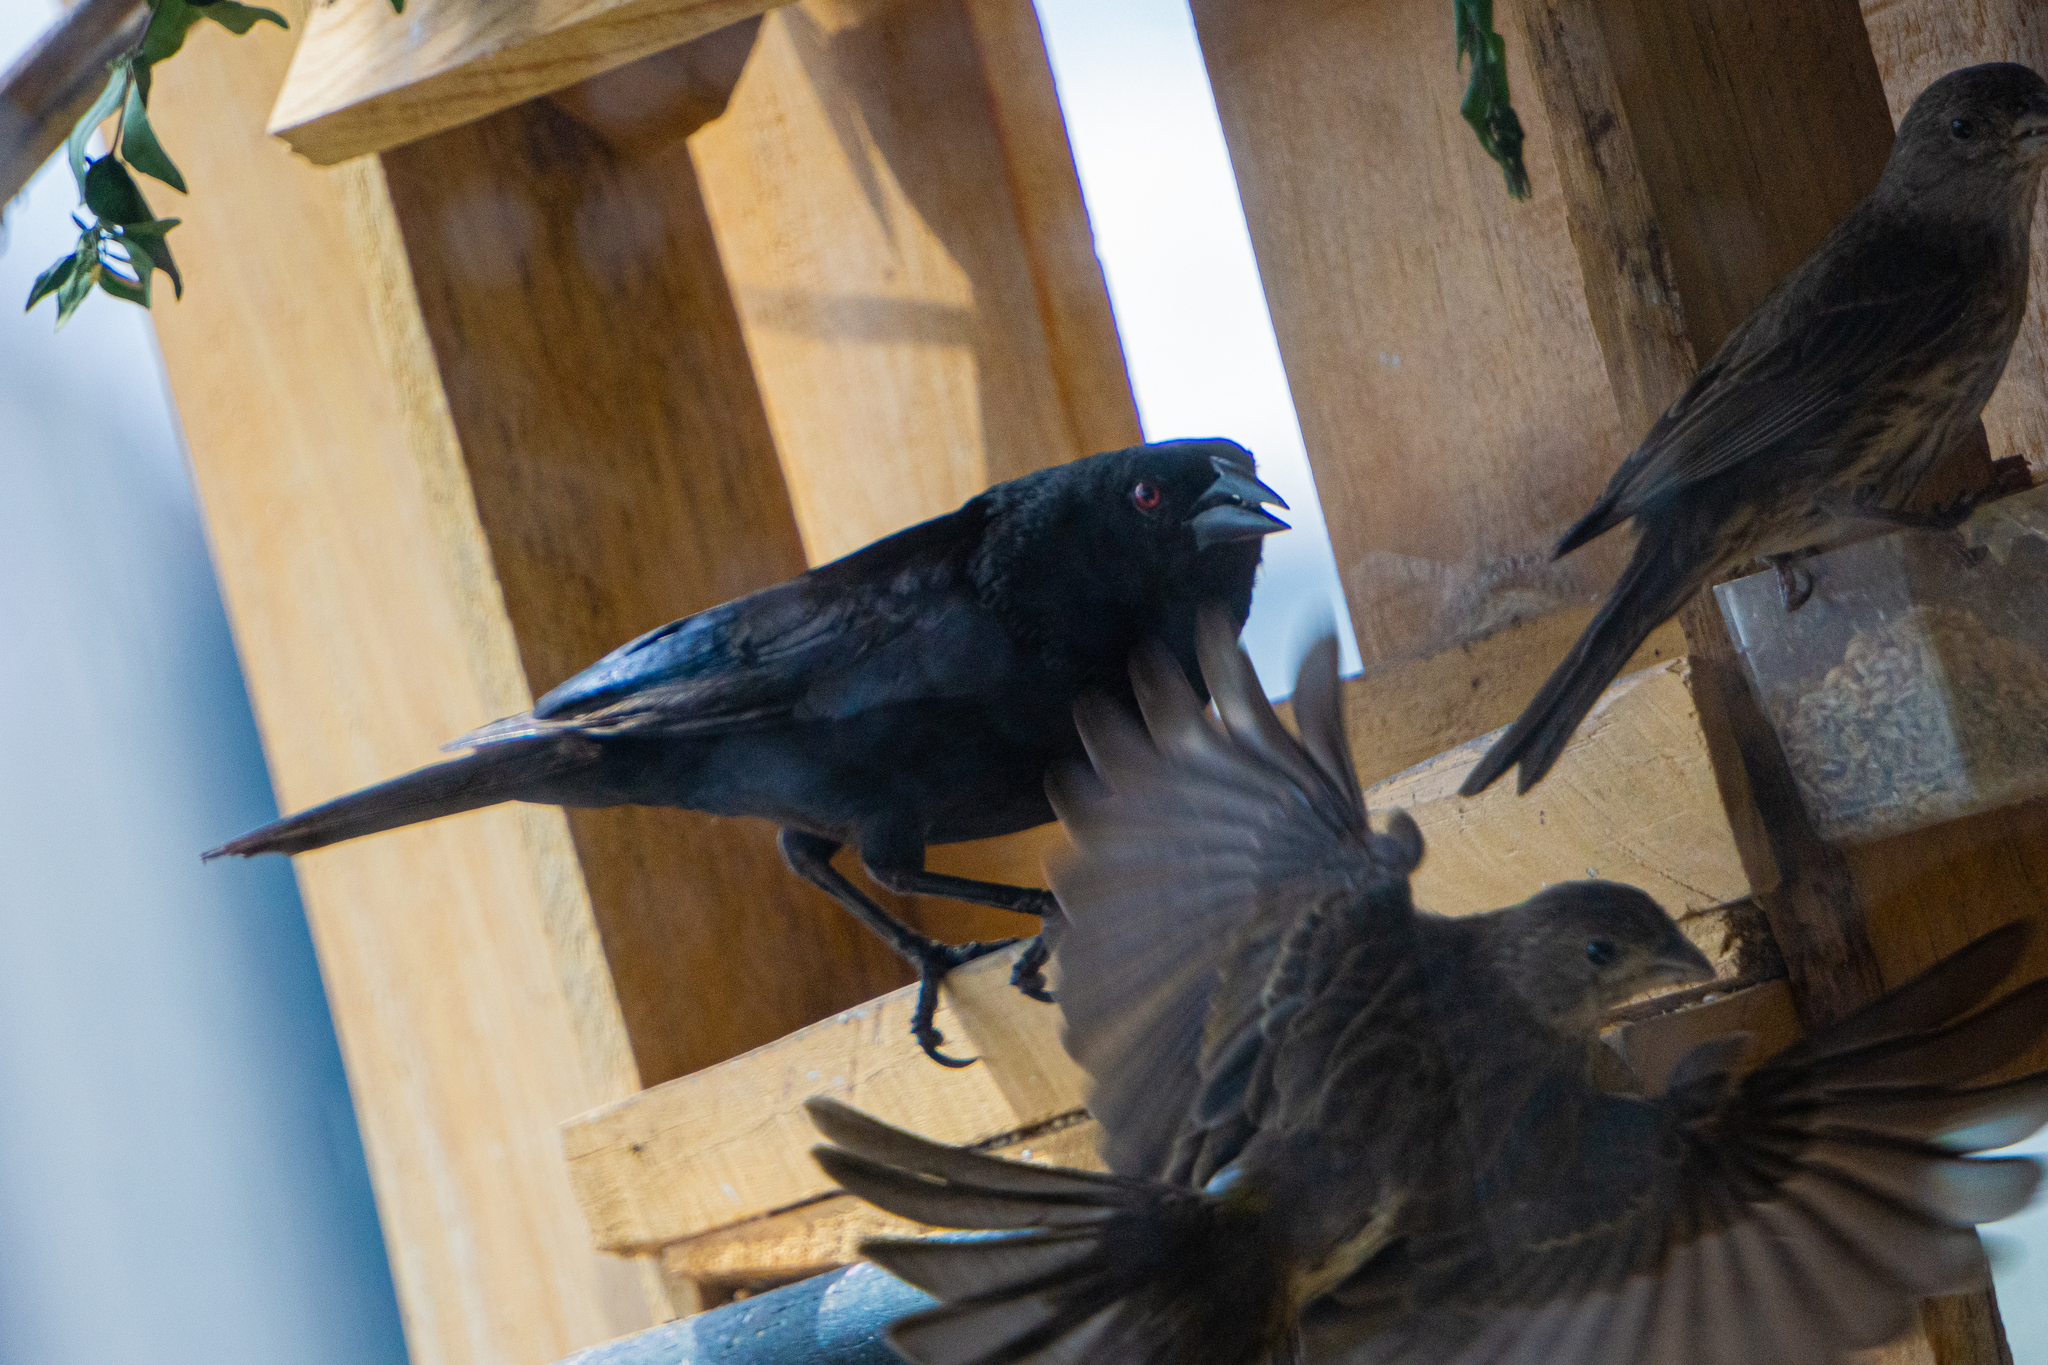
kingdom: Animalia
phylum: Chordata
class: Aves
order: Passeriformes
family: Icteridae
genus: Molothrus
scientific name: Molothrus aeneus
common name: Bronzed cowbird
